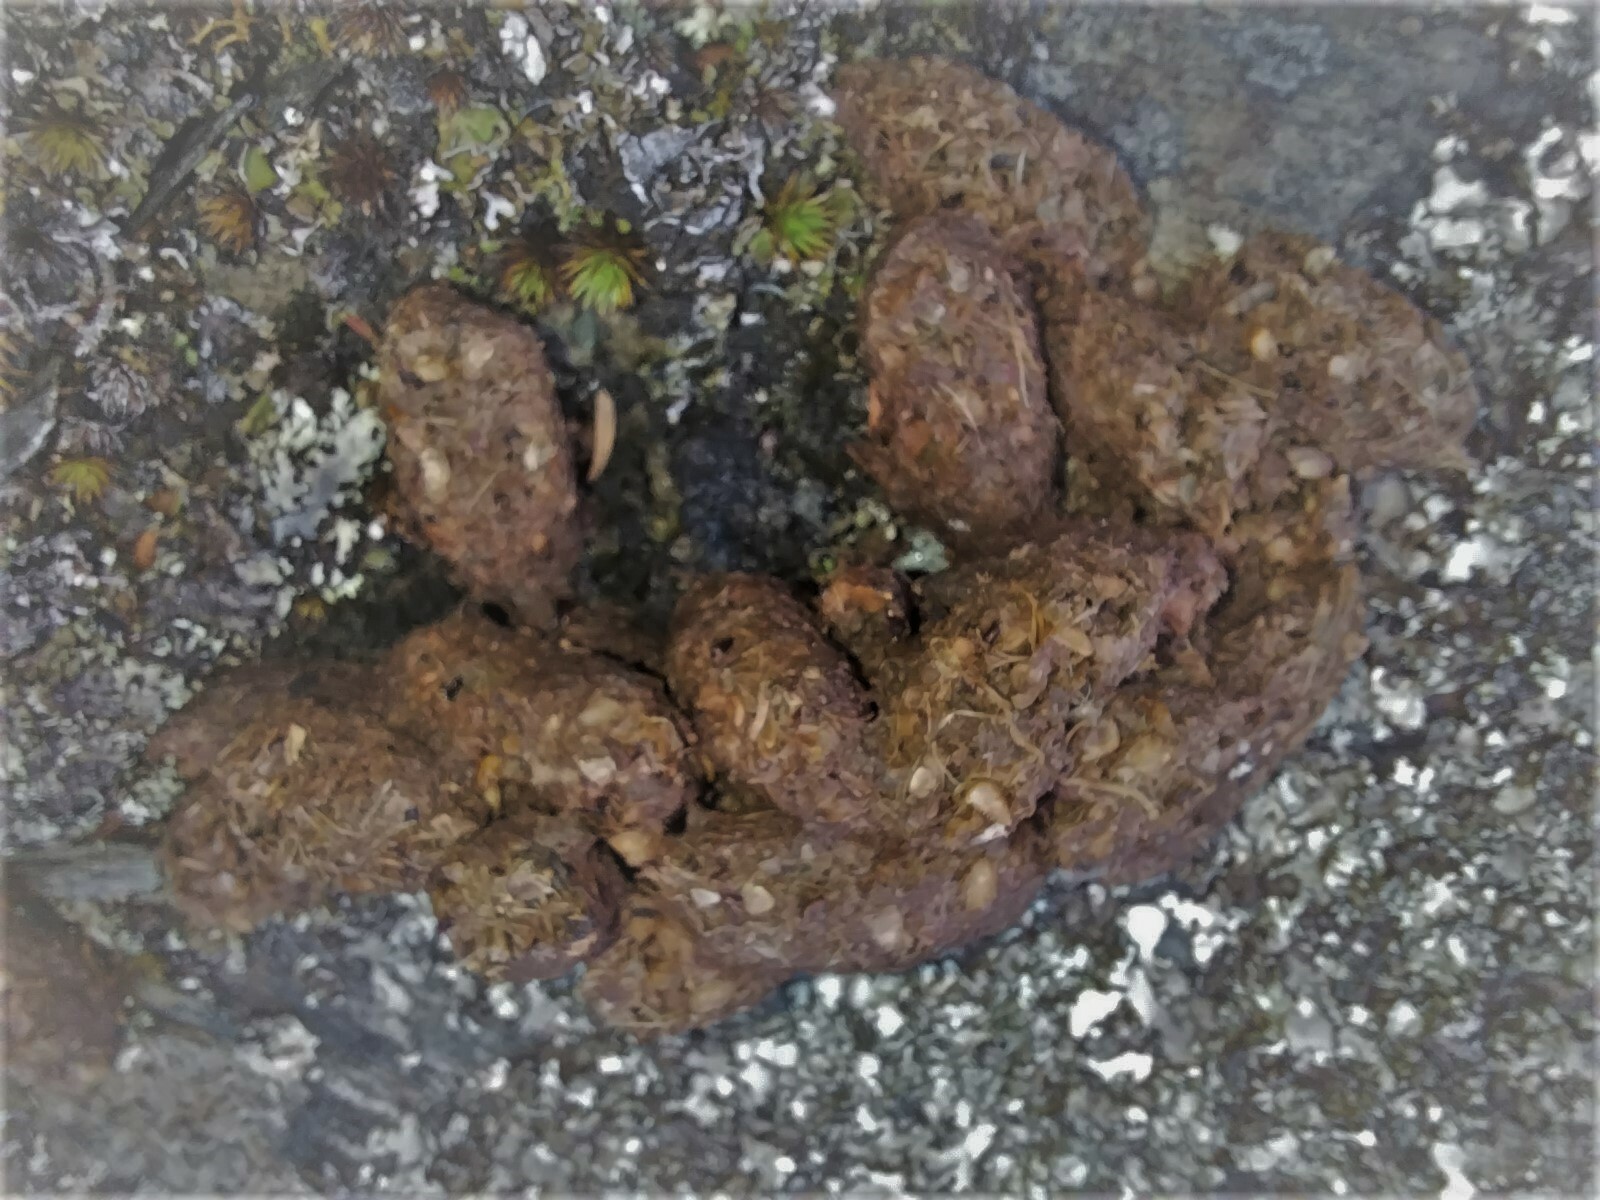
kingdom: Animalia
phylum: Chordata
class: Mammalia
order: Diprotodontia
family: Phalangeridae
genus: Trichosurus
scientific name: Trichosurus vulpecula
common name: Common brushtail
